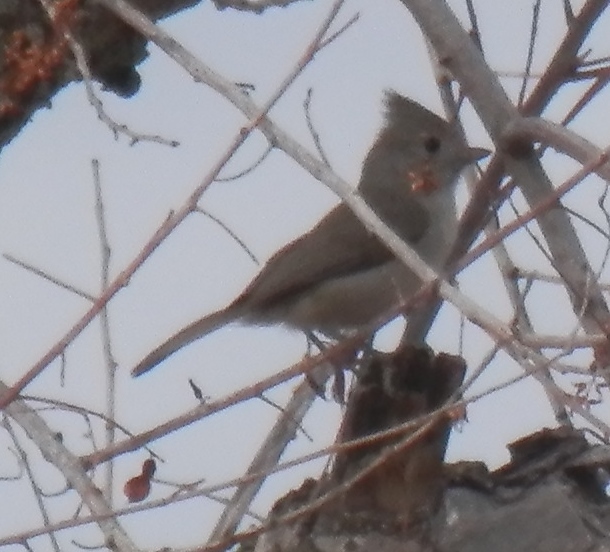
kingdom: Animalia
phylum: Chordata
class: Aves
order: Passeriformes
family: Paridae
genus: Baeolophus
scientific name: Baeolophus inornatus
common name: Oak titmouse
